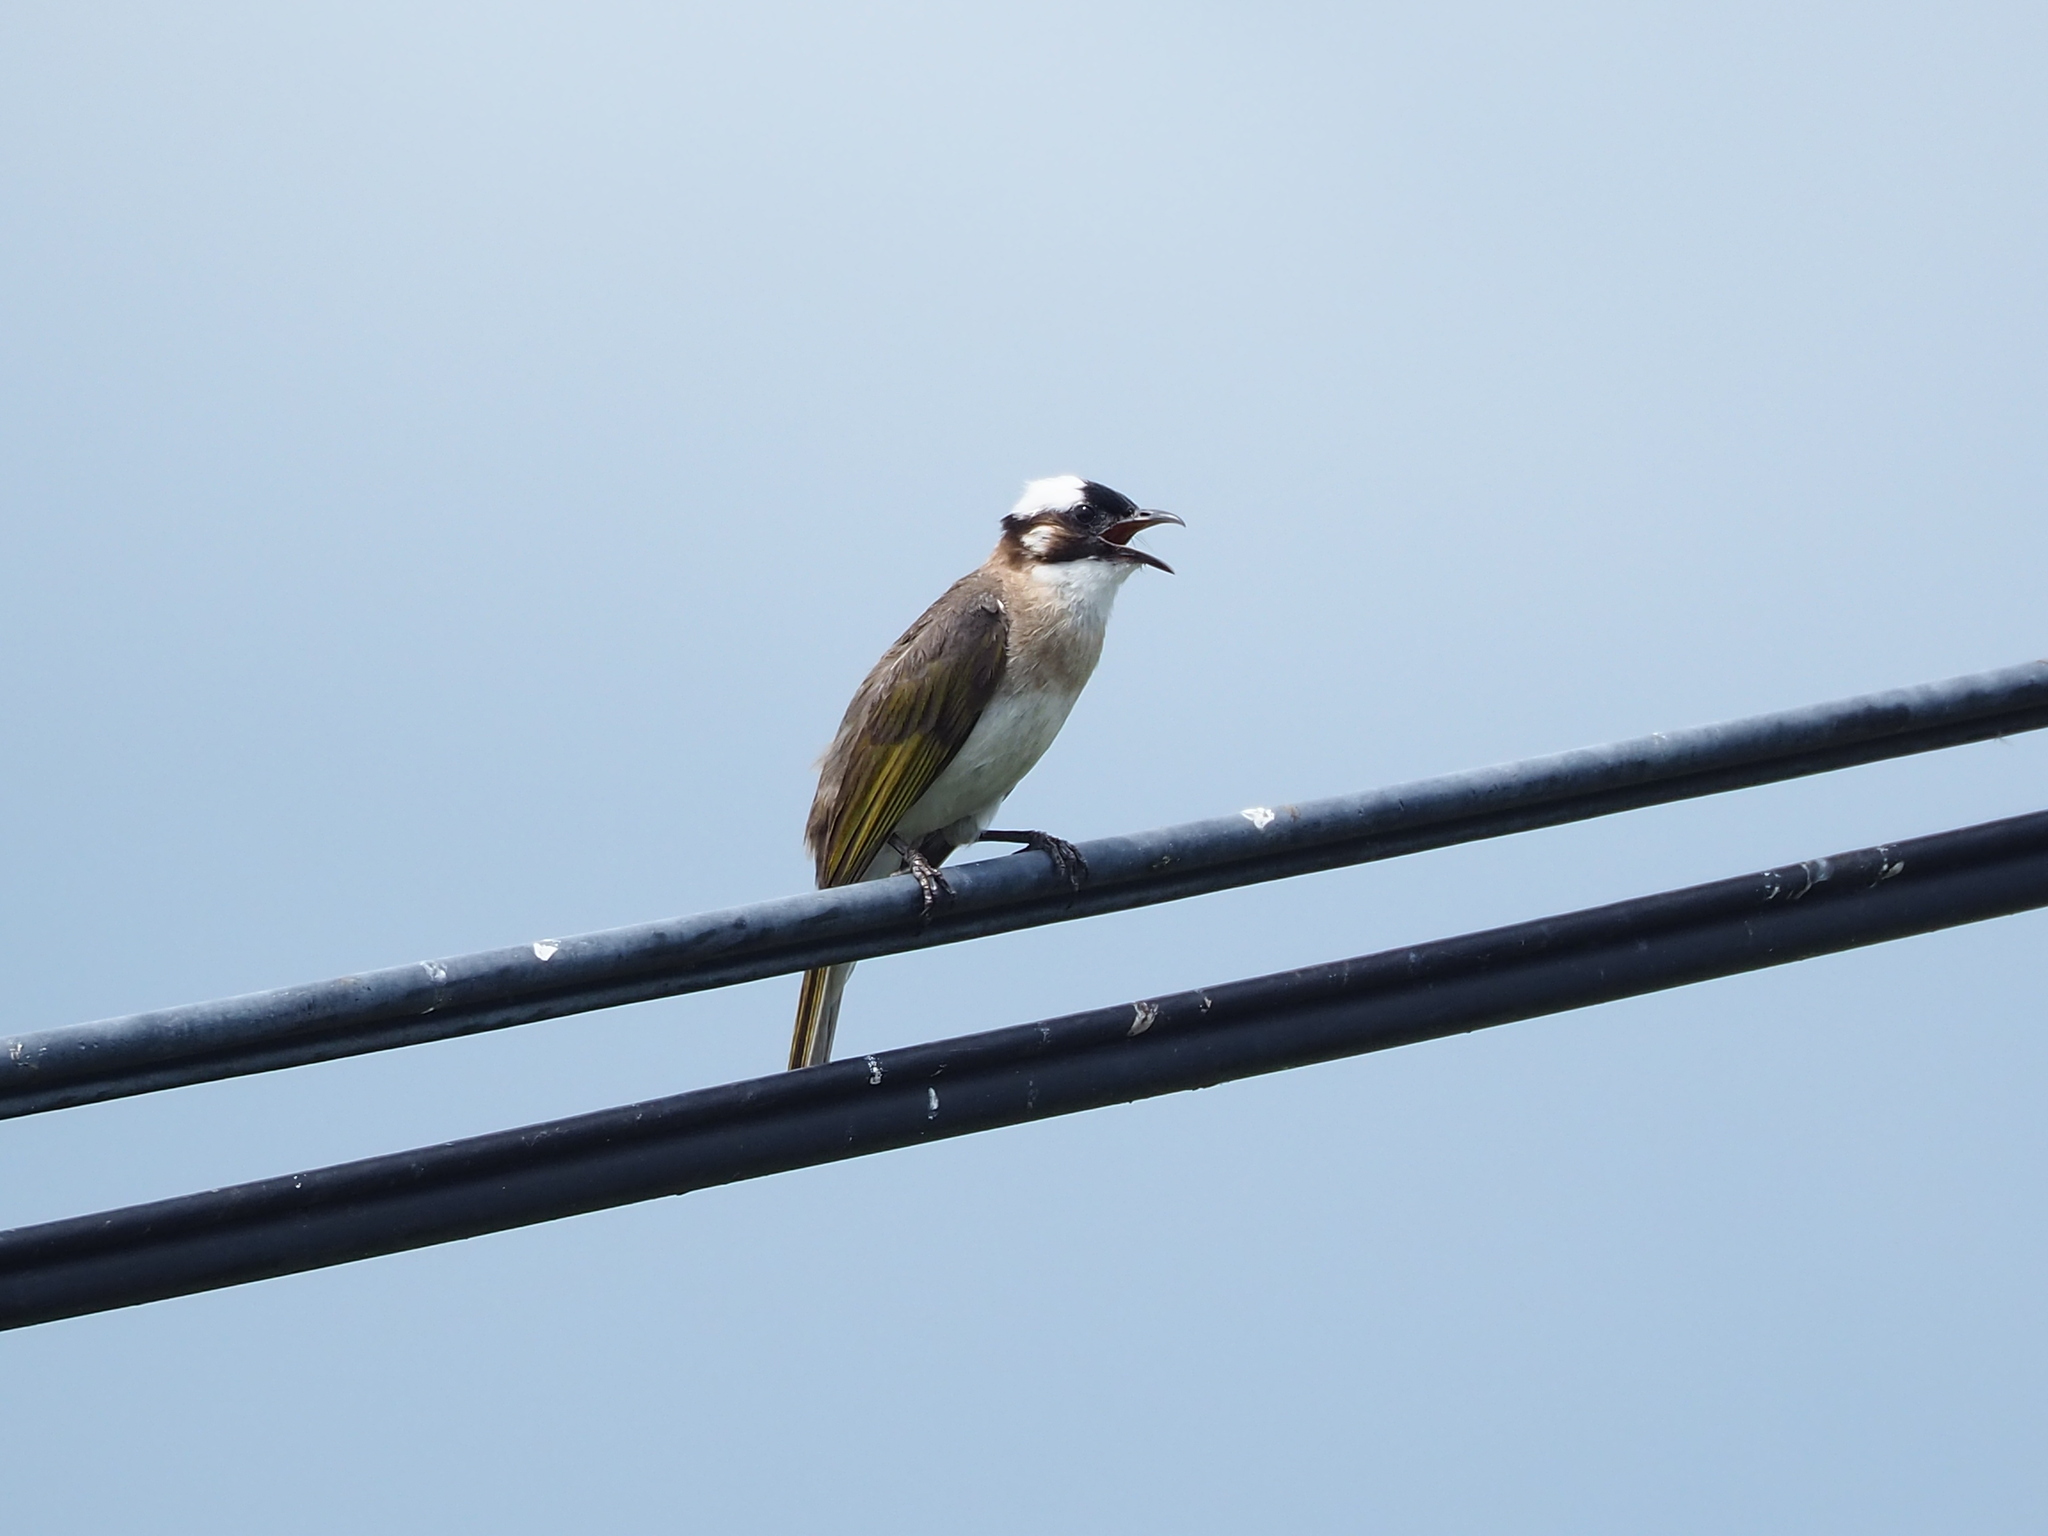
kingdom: Animalia
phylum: Chordata
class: Aves
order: Passeriformes
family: Pycnonotidae
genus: Pycnonotus
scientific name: Pycnonotus sinensis
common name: Light-vented bulbul
